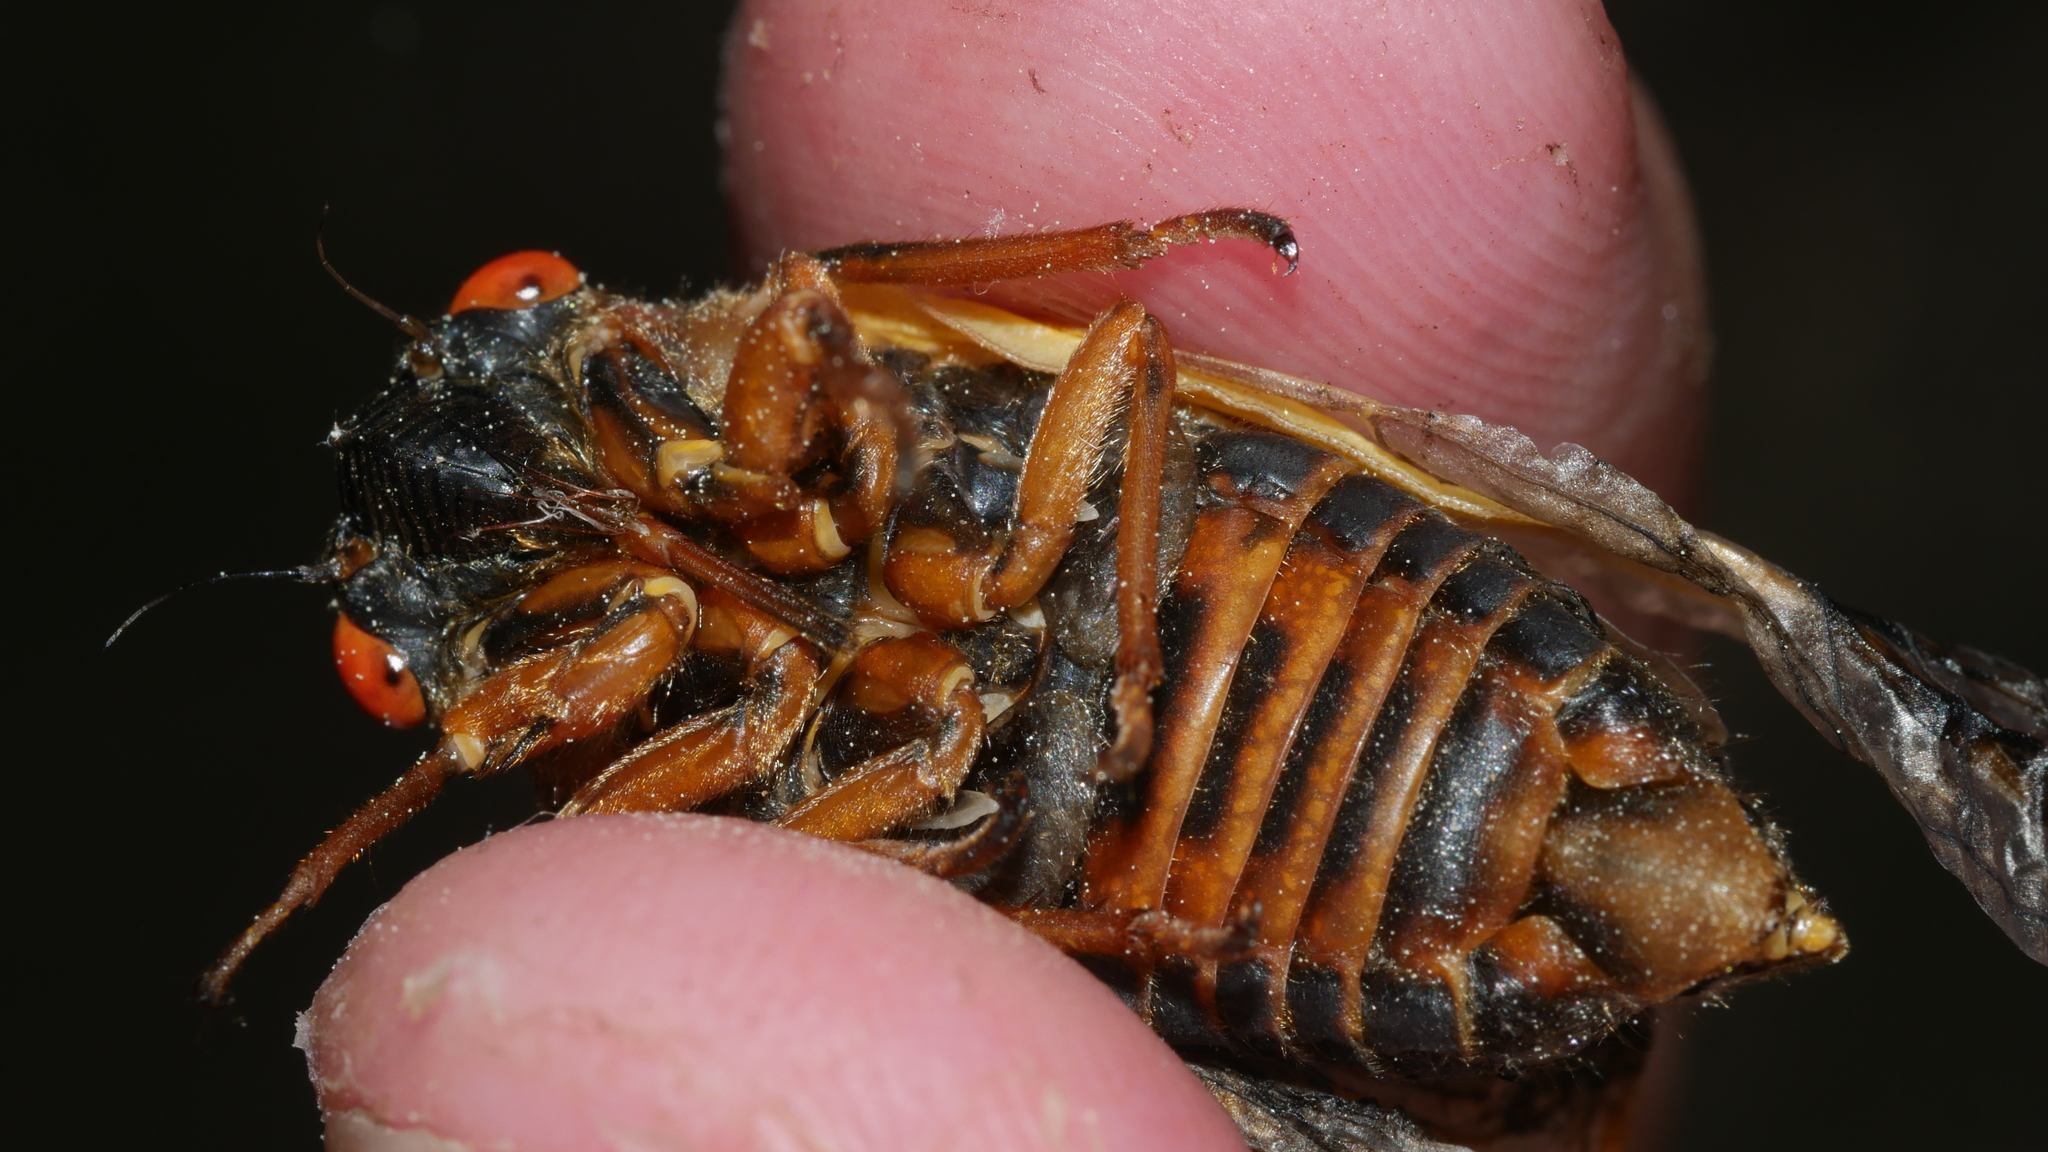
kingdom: Animalia
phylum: Arthropoda
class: Insecta
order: Hemiptera
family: Cicadidae
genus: Magicicada
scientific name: Magicicada septendecim
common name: Periodical cicada
